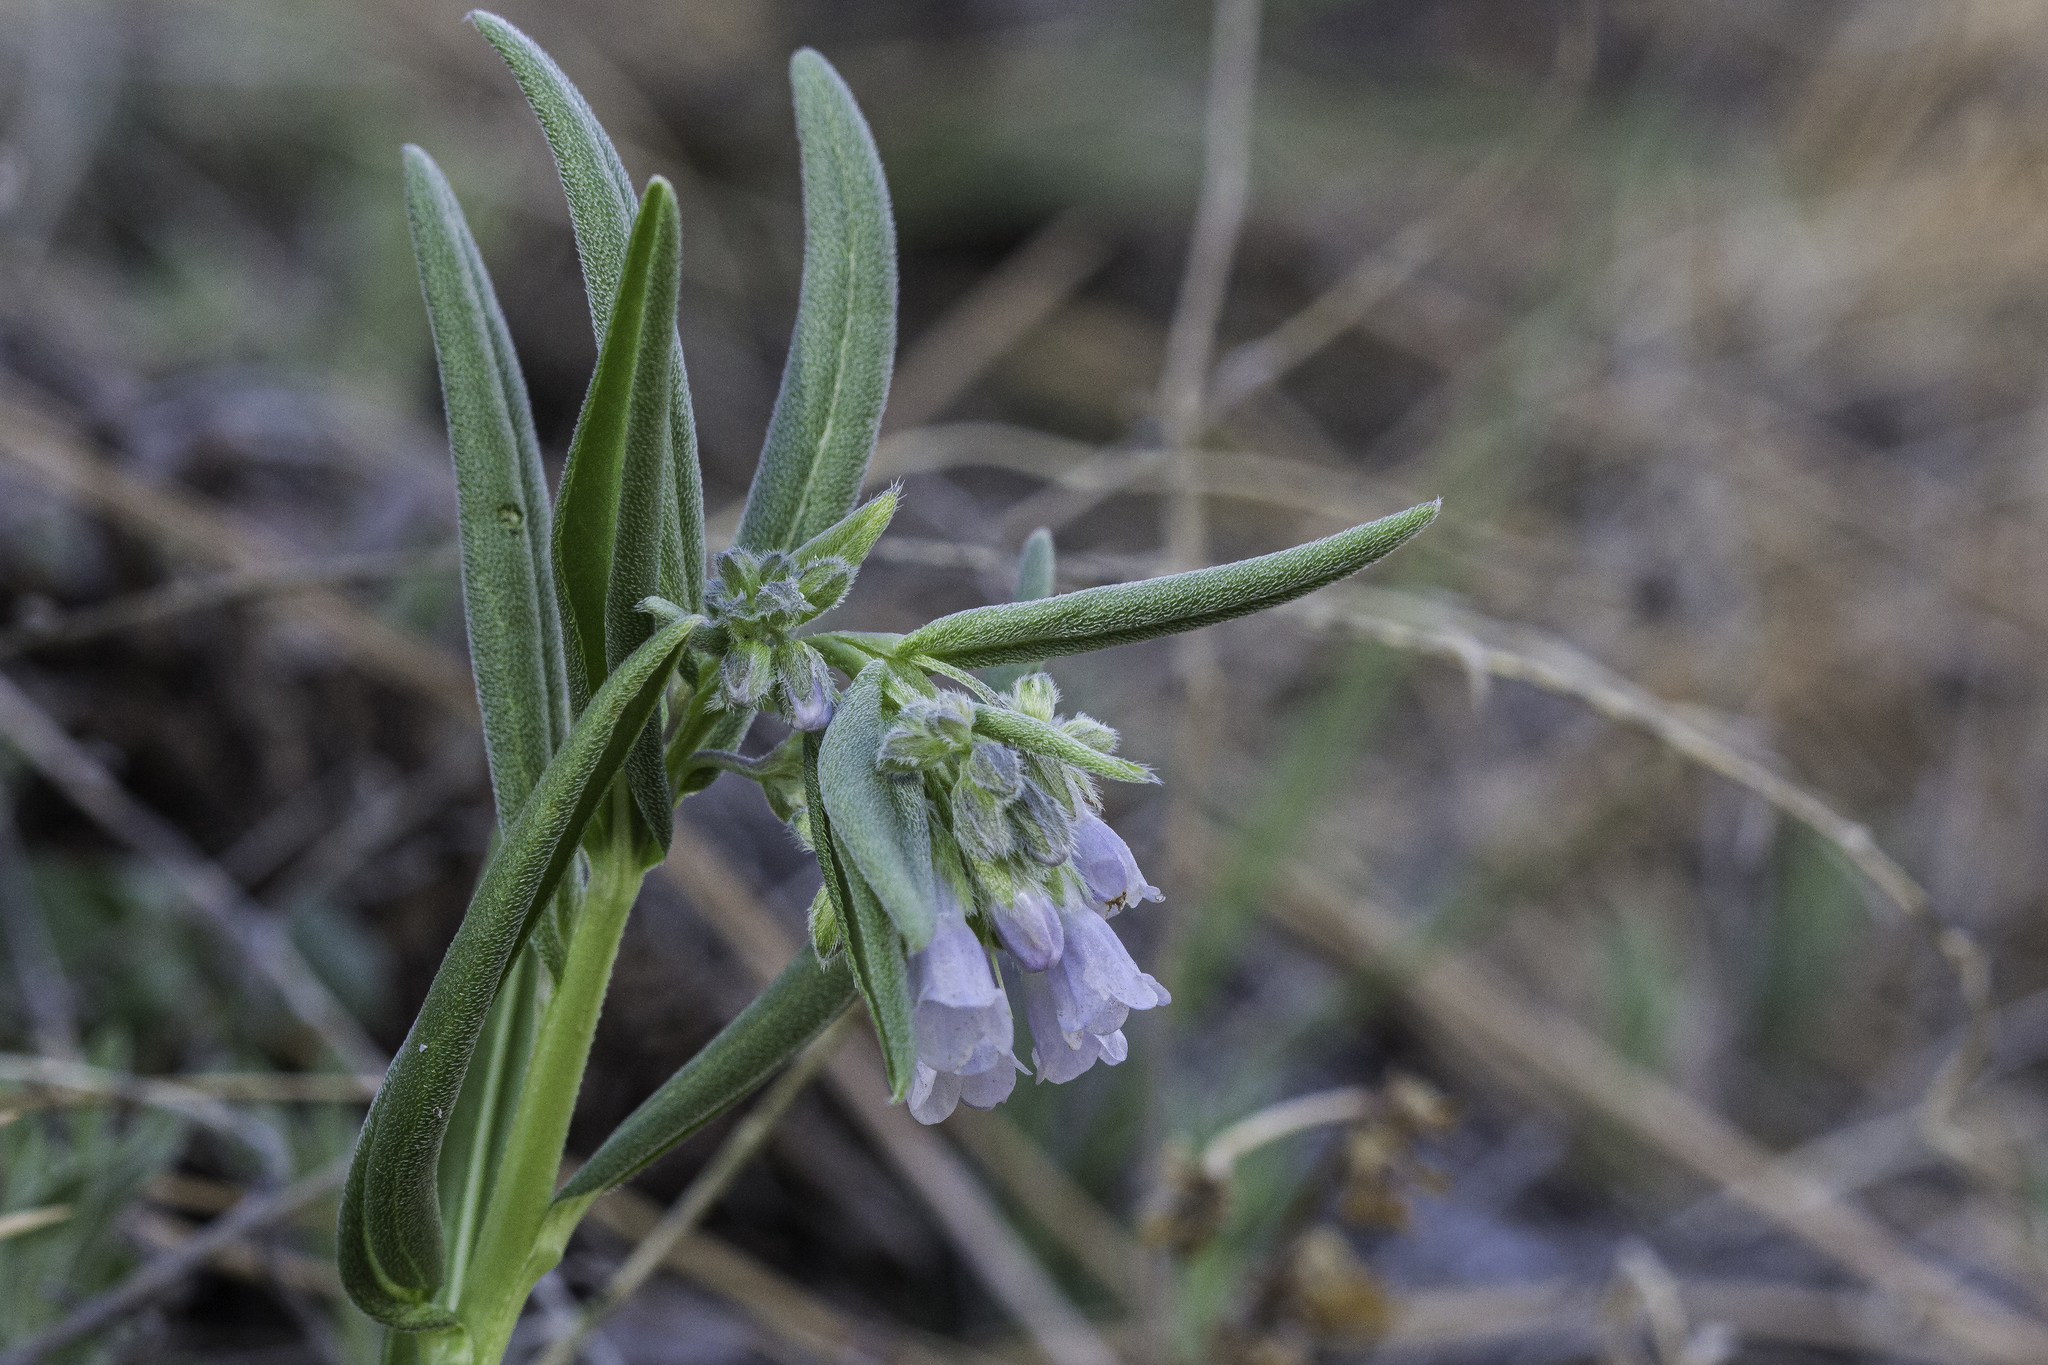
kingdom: Plantae
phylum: Tracheophyta
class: Magnoliopsida
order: Boraginales
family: Boraginaceae
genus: Mertensia
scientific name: Mertensia fendleri
